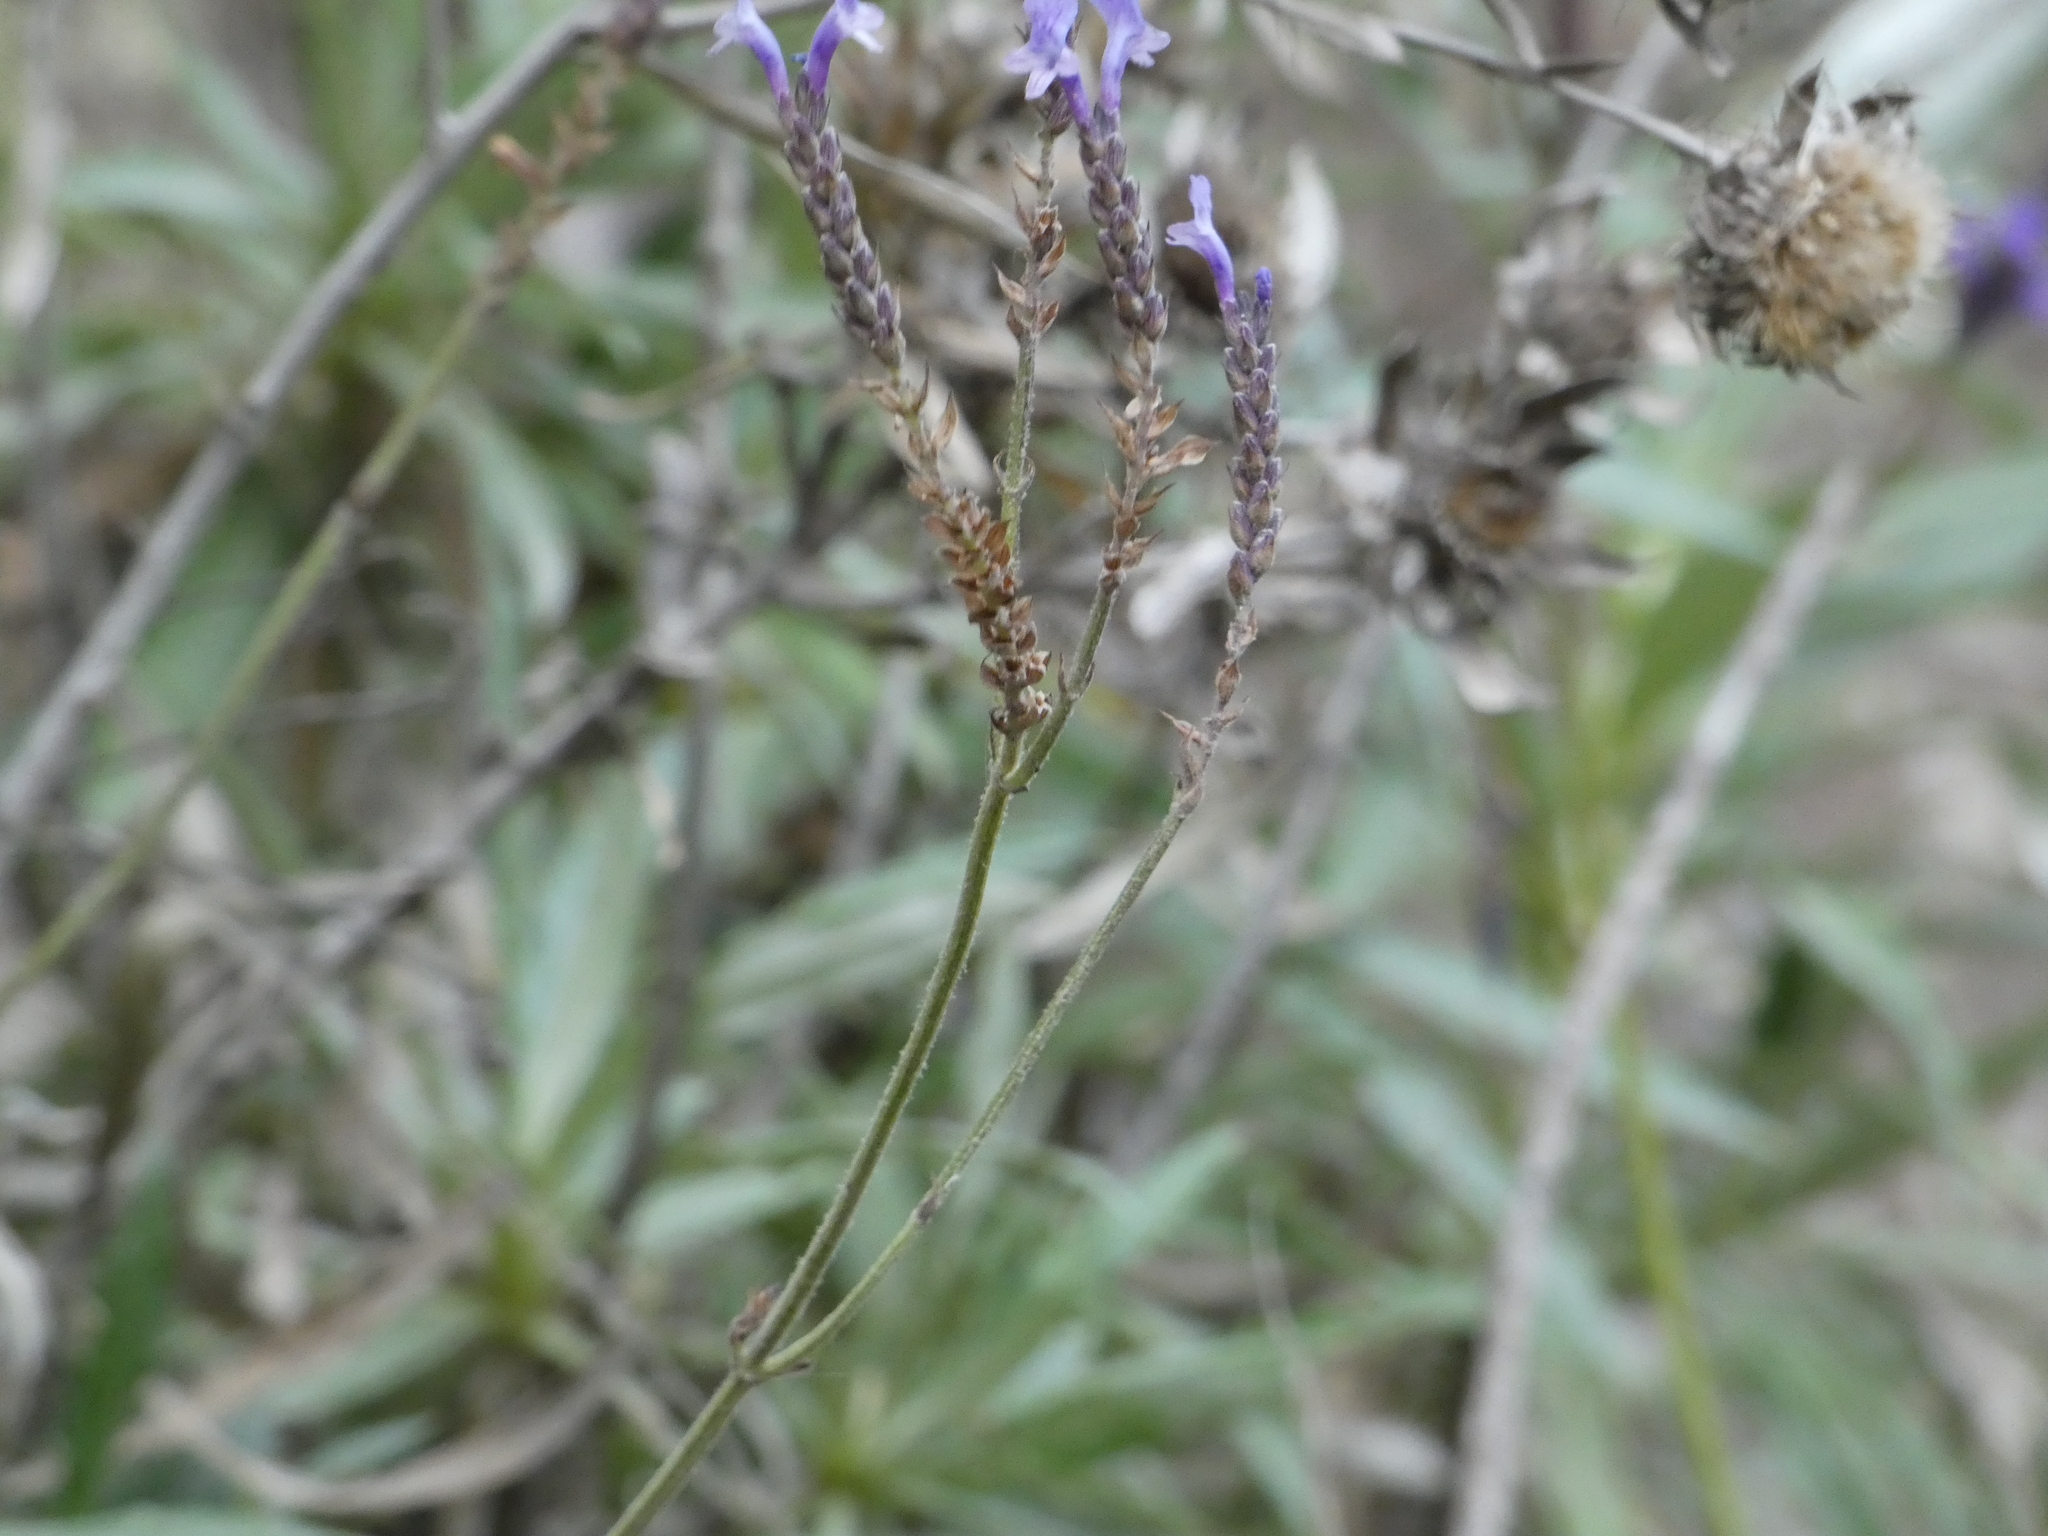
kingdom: Plantae
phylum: Tracheophyta
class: Magnoliopsida
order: Lamiales
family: Lamiaceae
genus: Lavandula
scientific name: Lavandula canariensis
